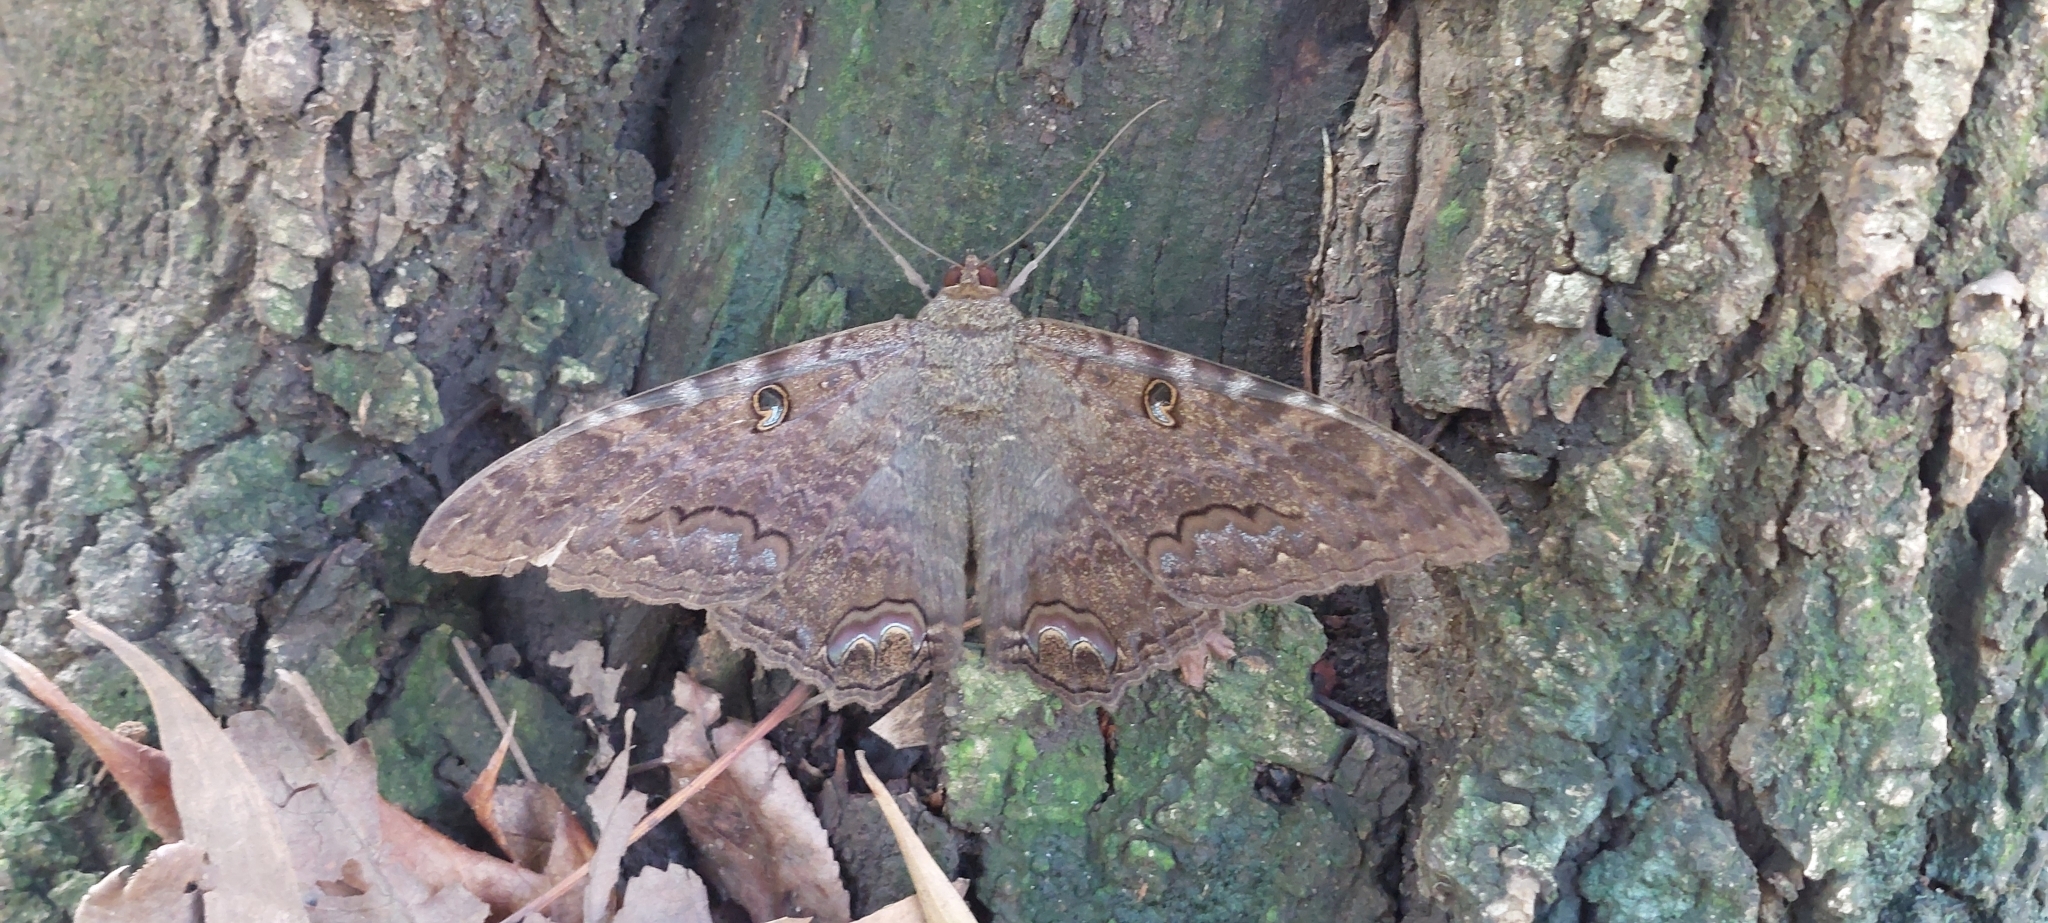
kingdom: Animalia
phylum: Arthropoda
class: Insecta
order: Lepidoptera
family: Erebidae
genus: Ascalapha
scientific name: Ascalapha odorata
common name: Black witch
